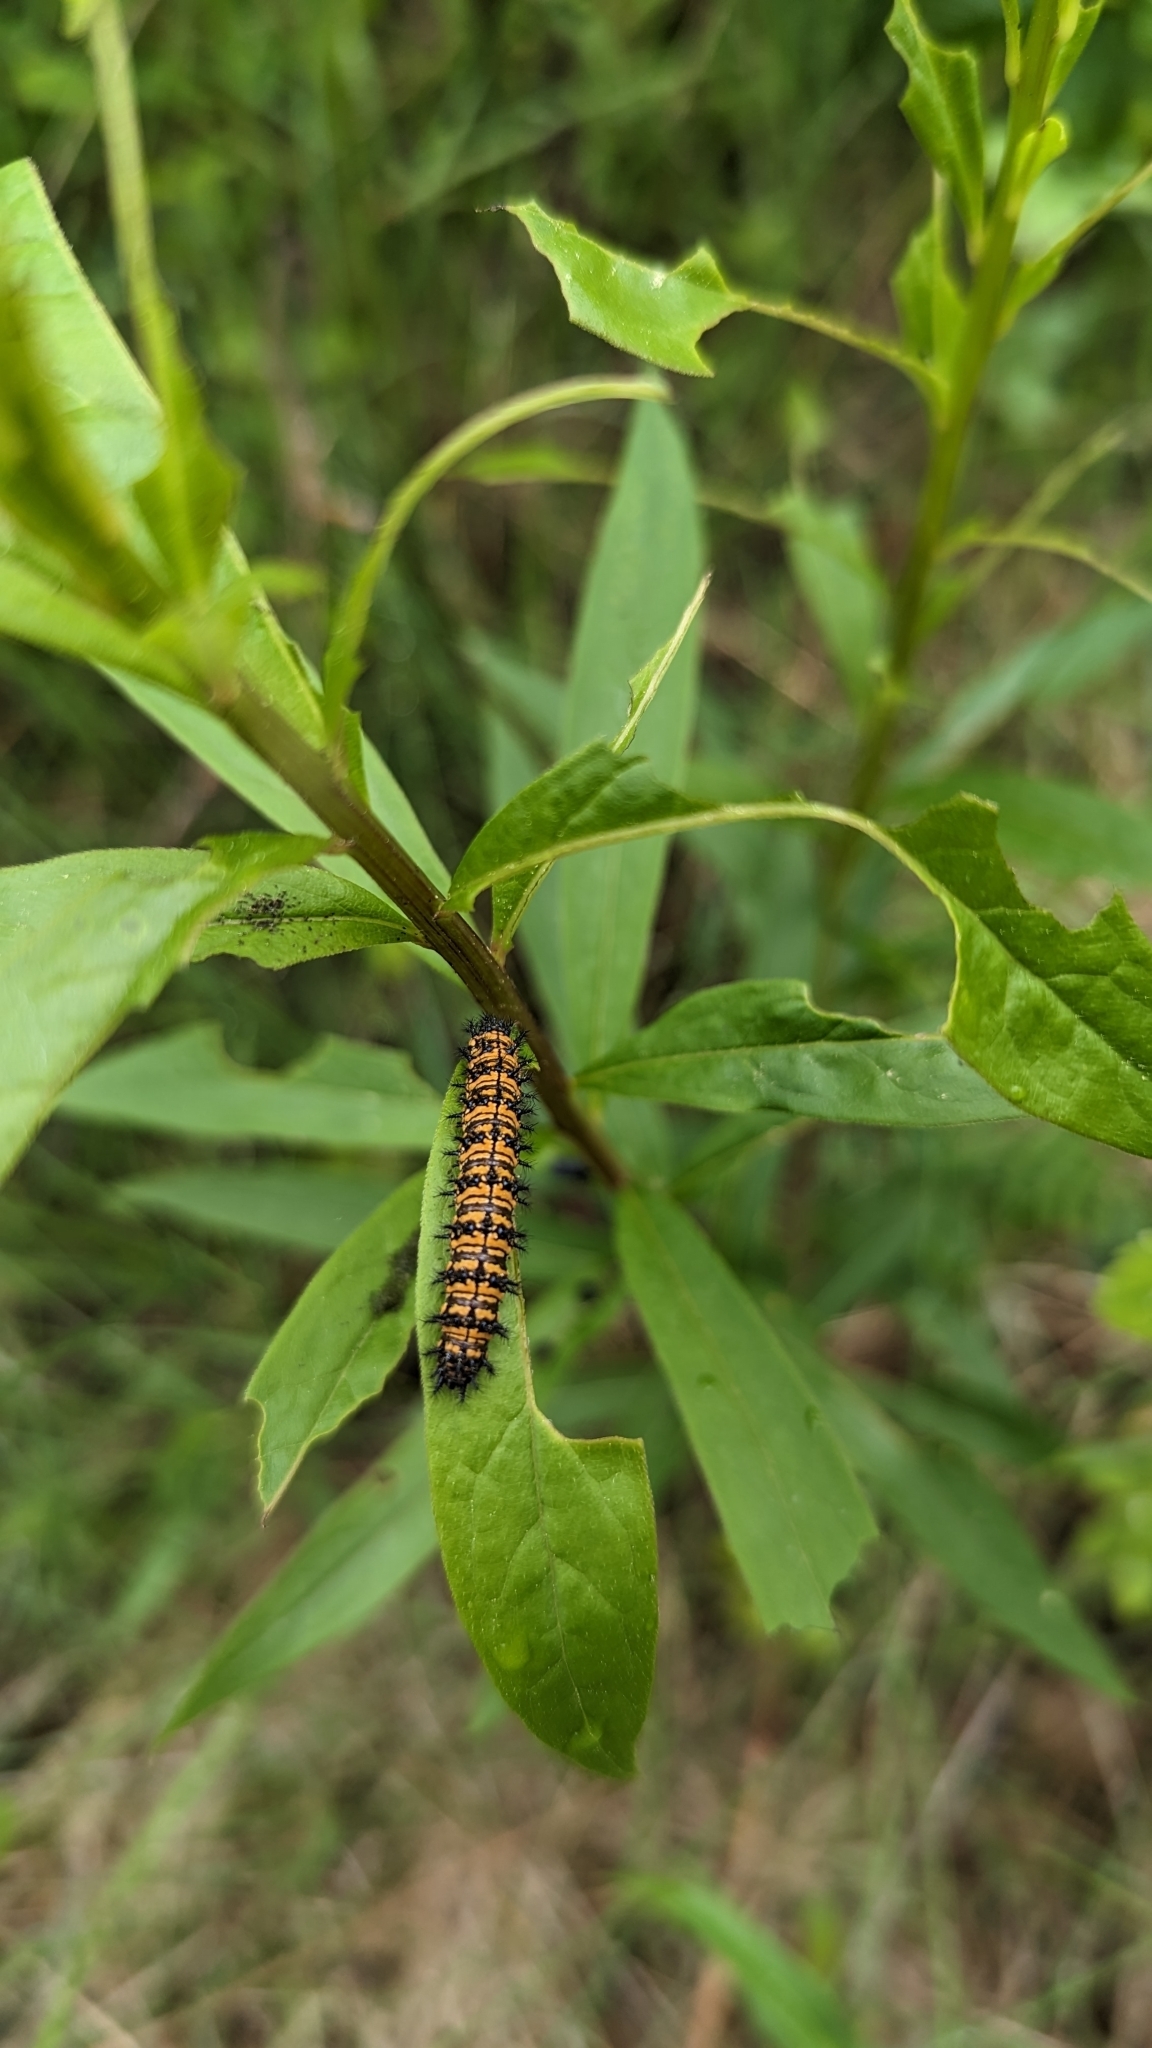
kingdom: Animalia
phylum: Arthropoda
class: Insecta
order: Lepidoptera
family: Nymphalidae
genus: Chlosyne
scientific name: Chlosyne harrisii
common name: Harris's checkerspot
